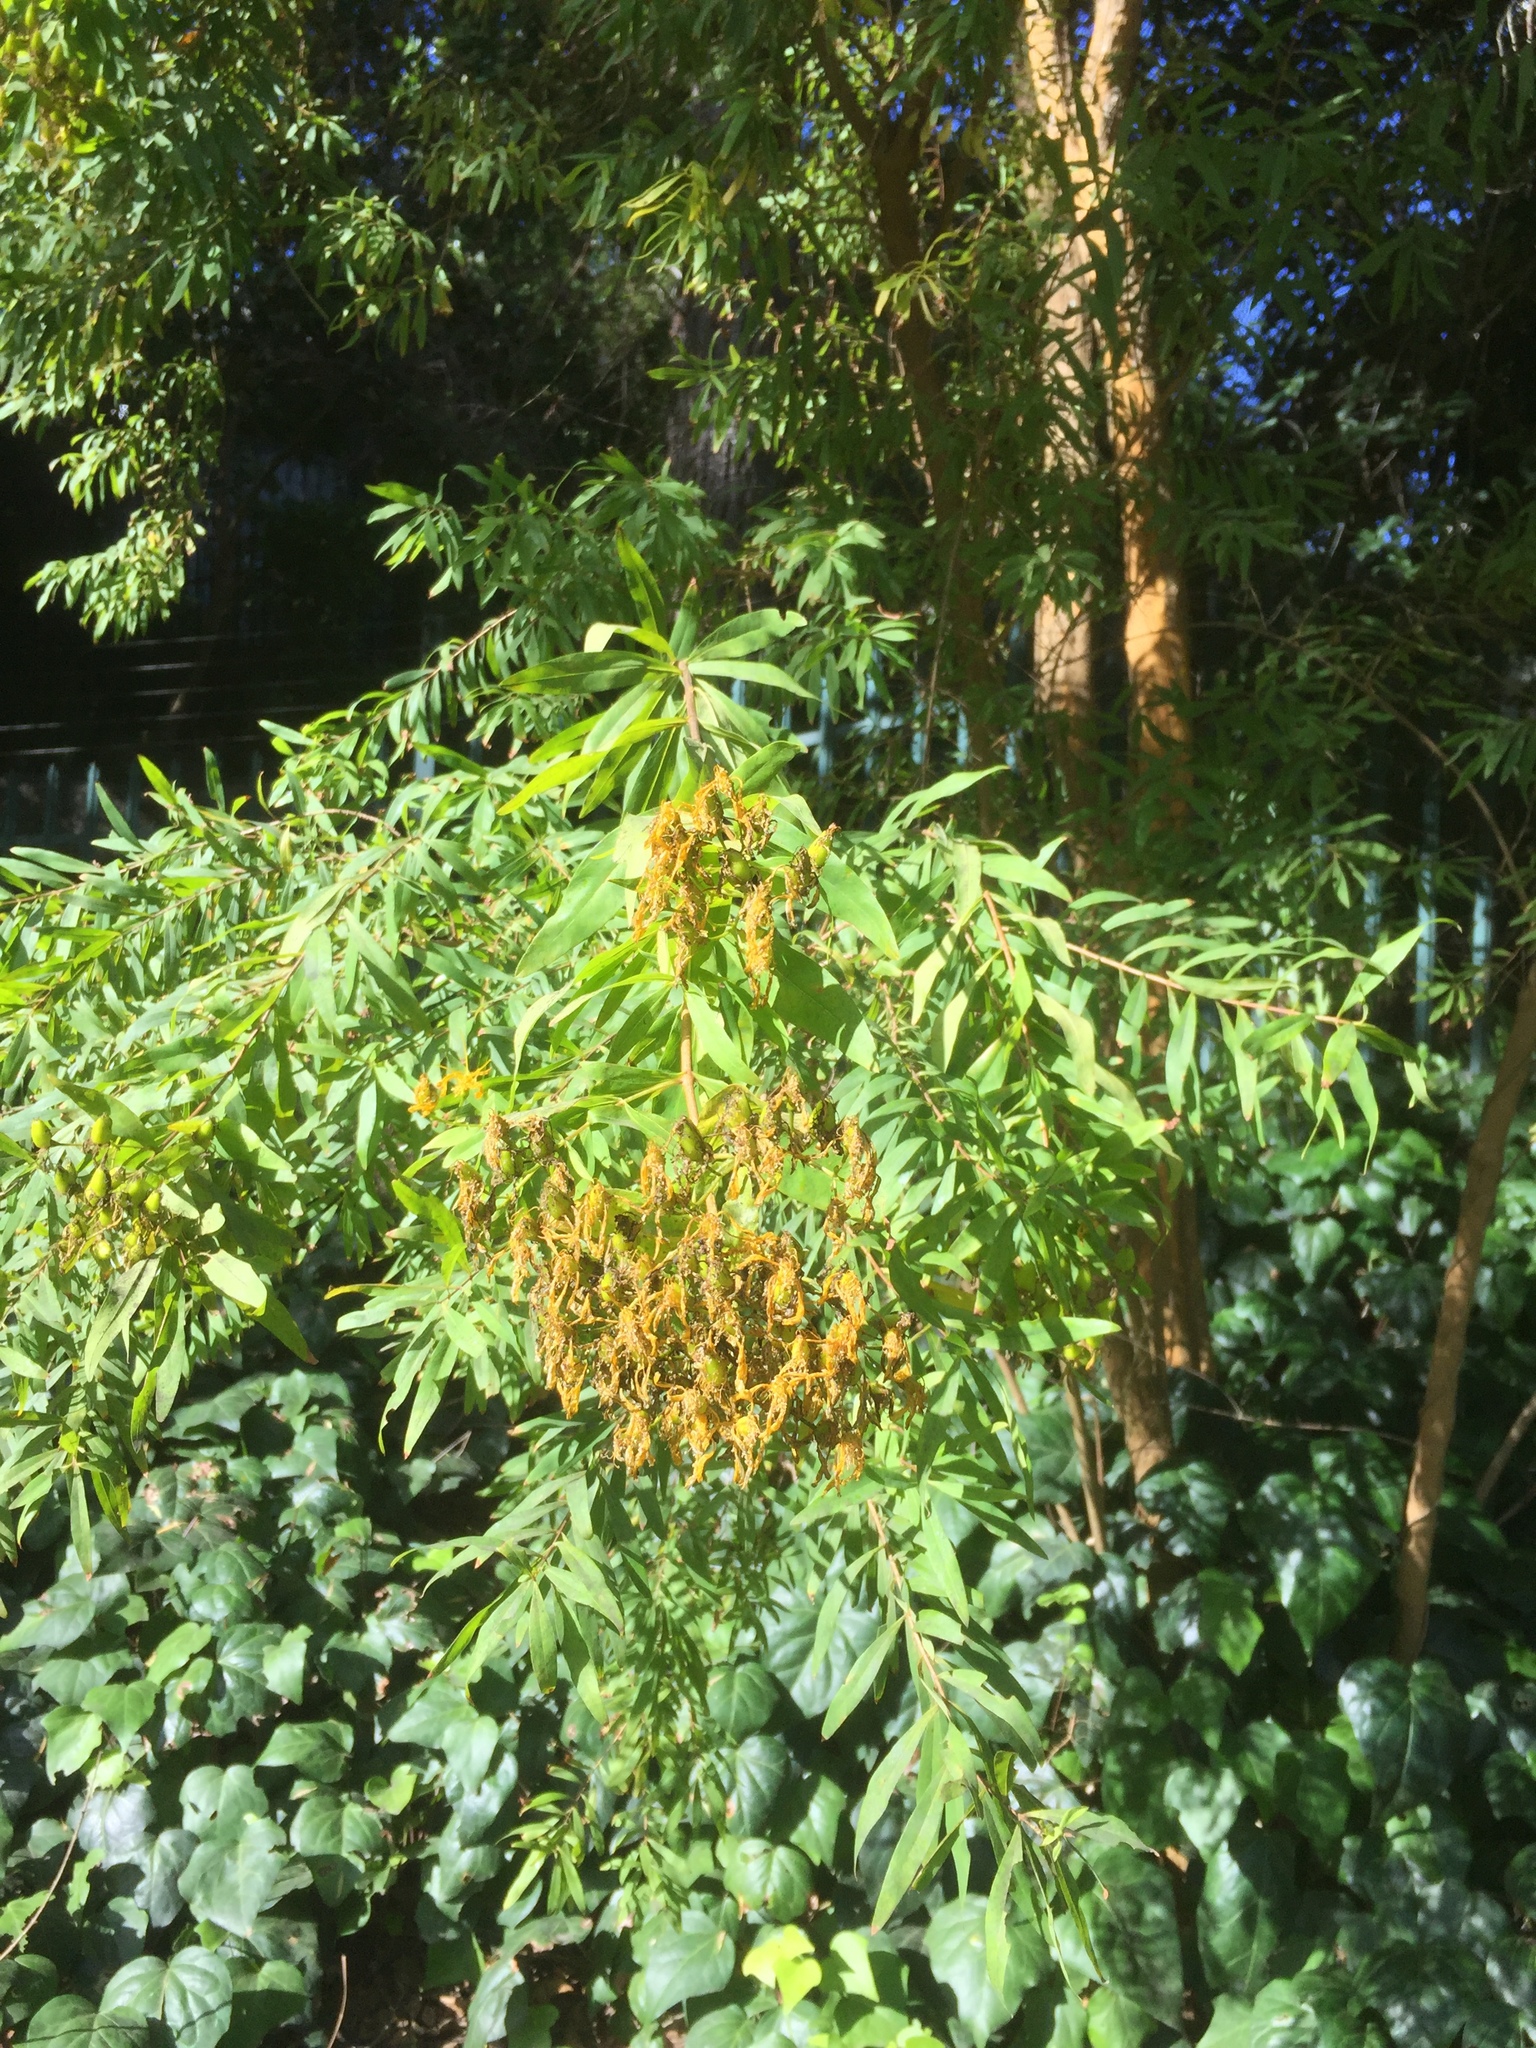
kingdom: Plantae
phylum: Tracheophyta
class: Magnoliopsida
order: Malpighiales
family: Hypericaceae
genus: Hypericum
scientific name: Hypericum canariense
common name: Canary island st. johnswort
